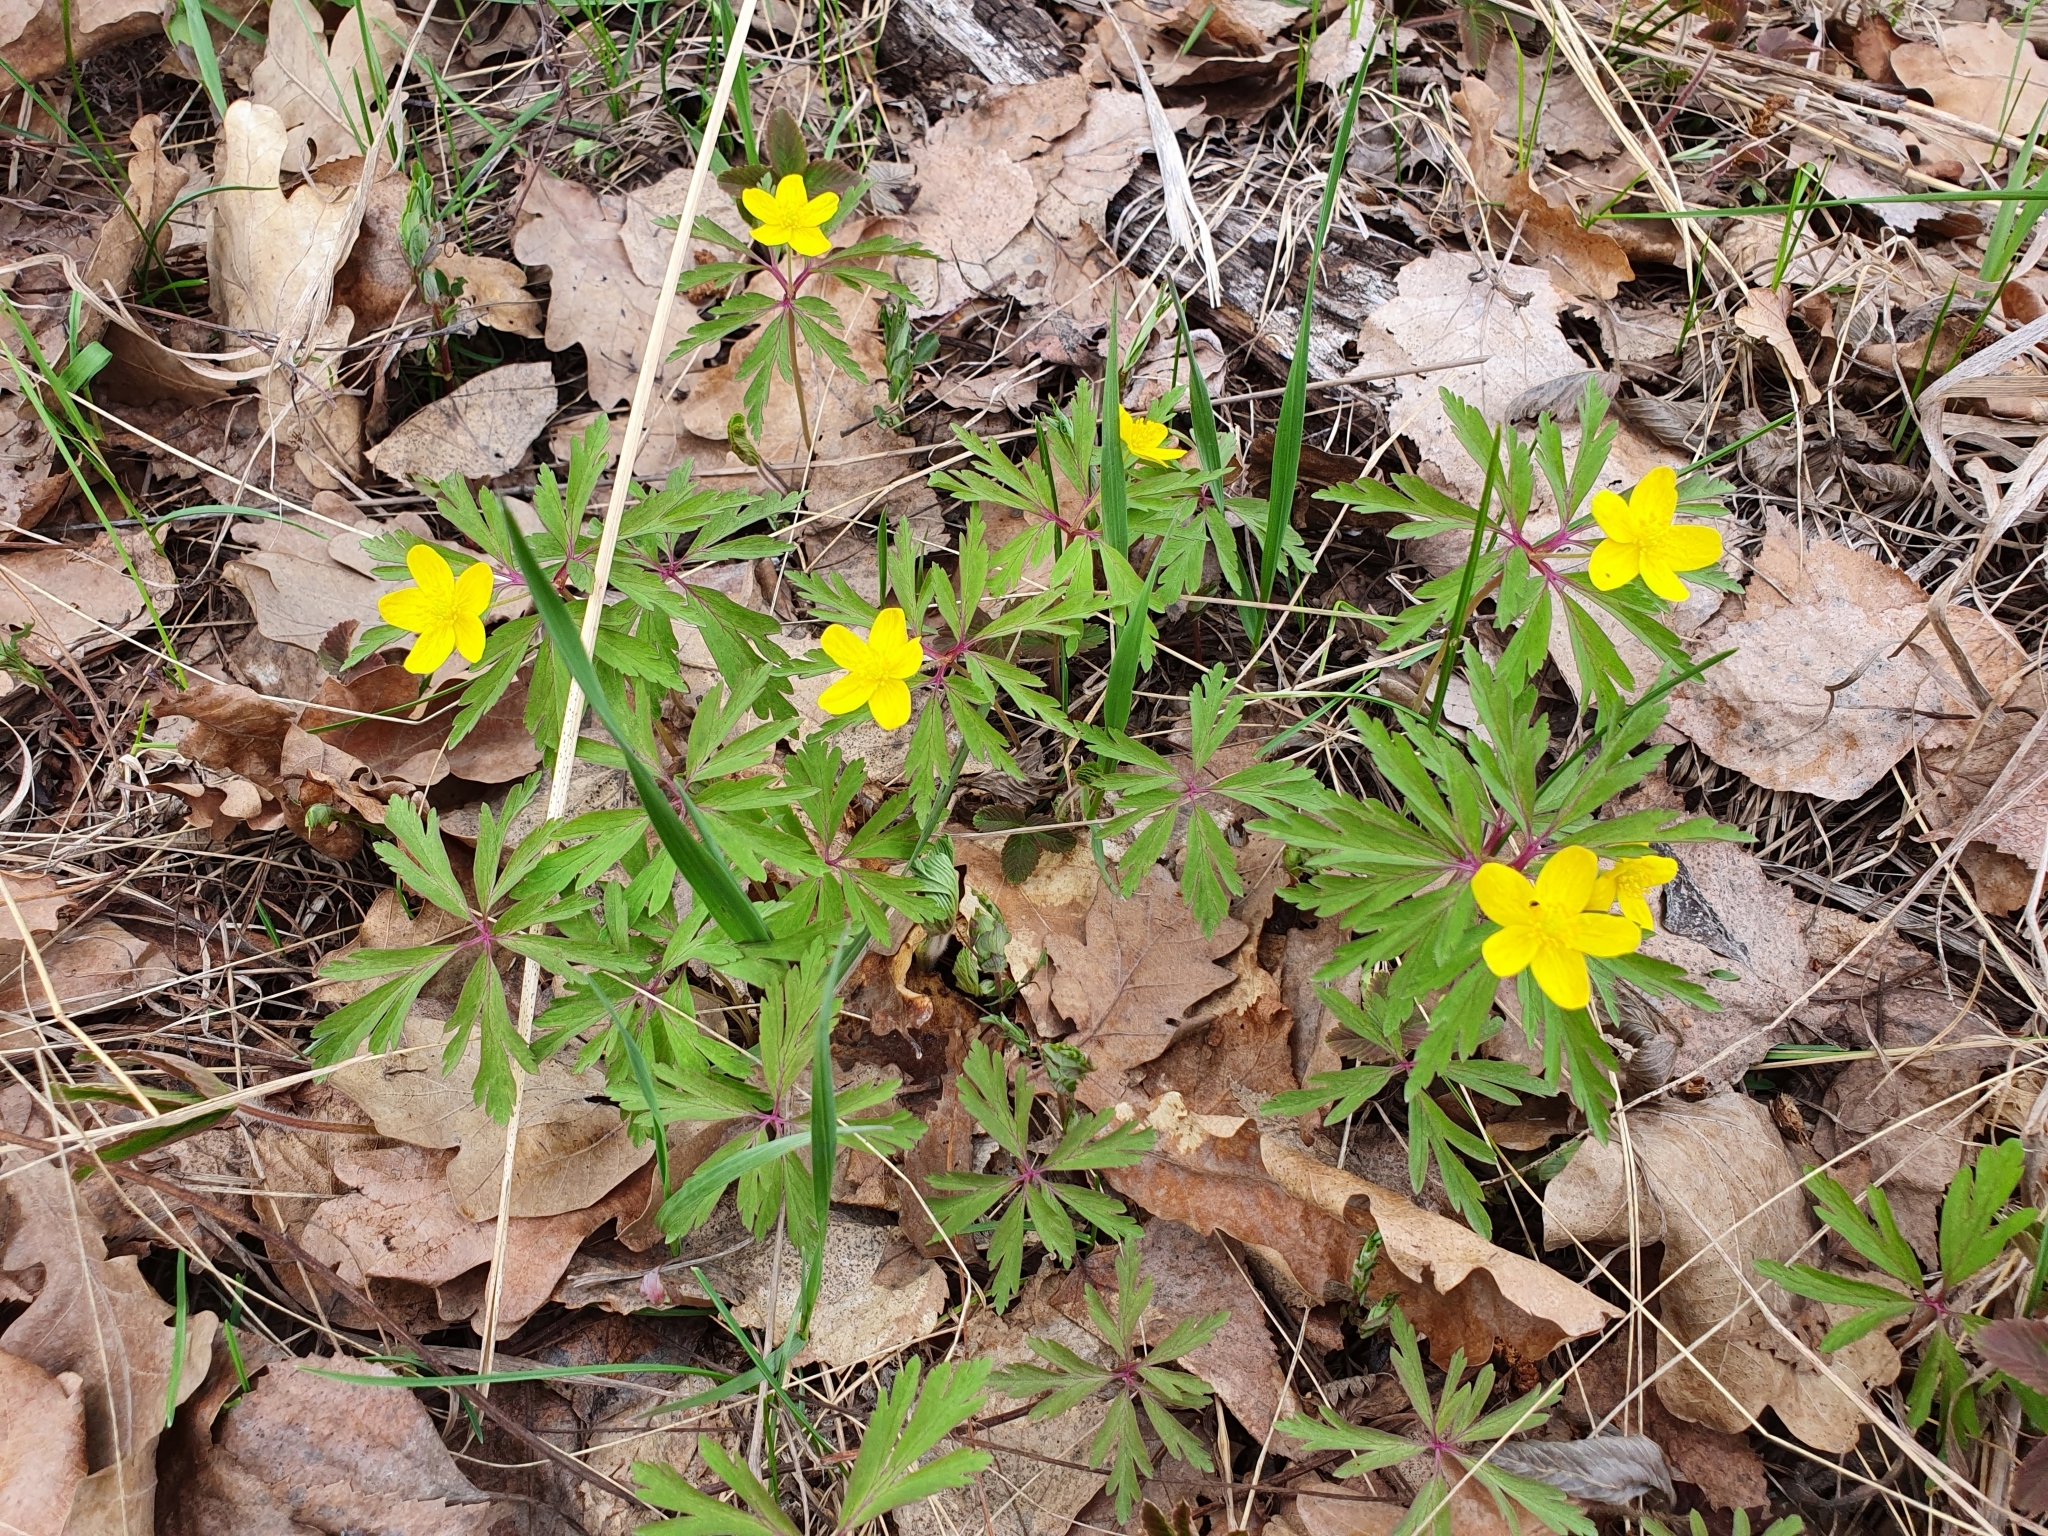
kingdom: Plantae
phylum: Tracheophyta
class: Magnoliopsida
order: Ranunculales
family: Ranunculaceae
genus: Anemone
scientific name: Anemone ranunculoides
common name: Yellow anemone
